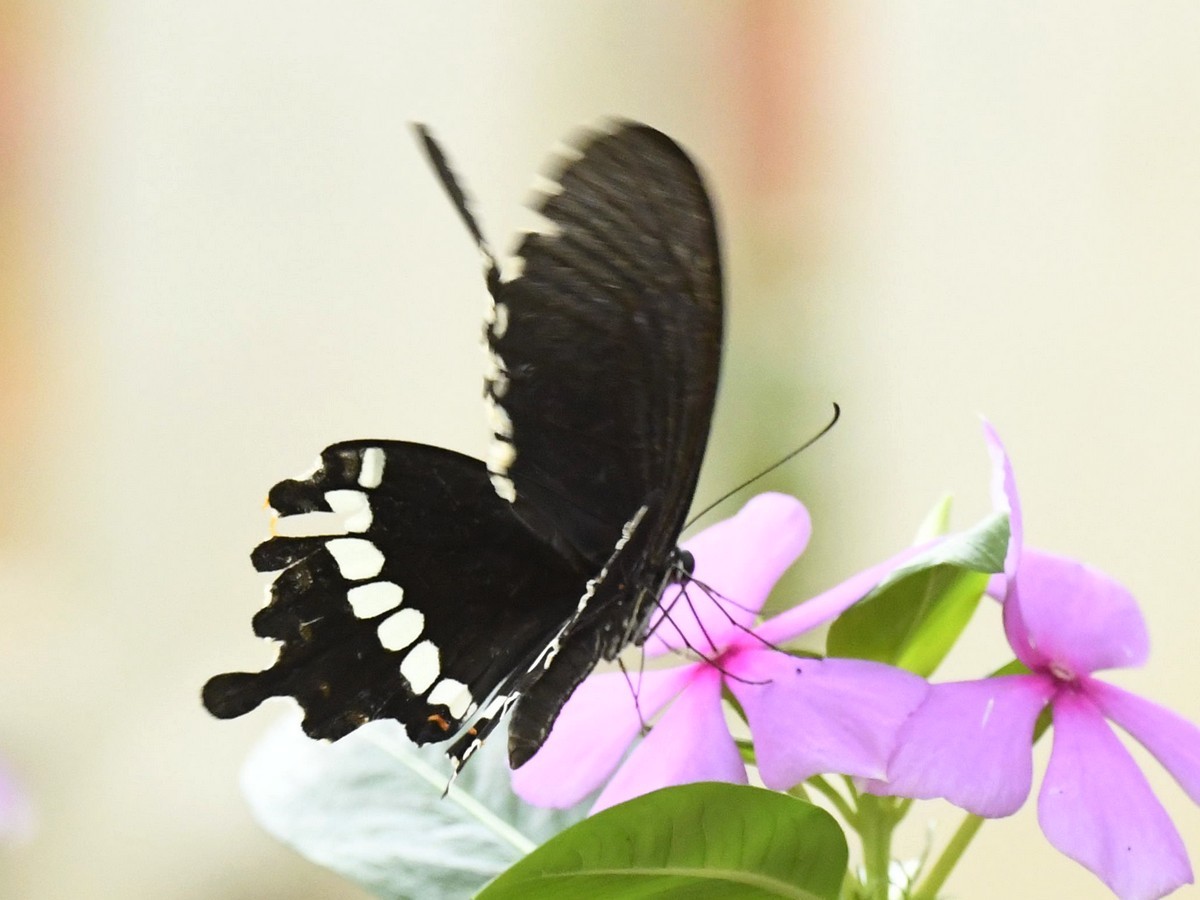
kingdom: Animalia
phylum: Arthropoda
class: Insecta
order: Lepidoptera
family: Papilionidae
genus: Papilio
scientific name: Papilio polytes
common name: Common mormon
